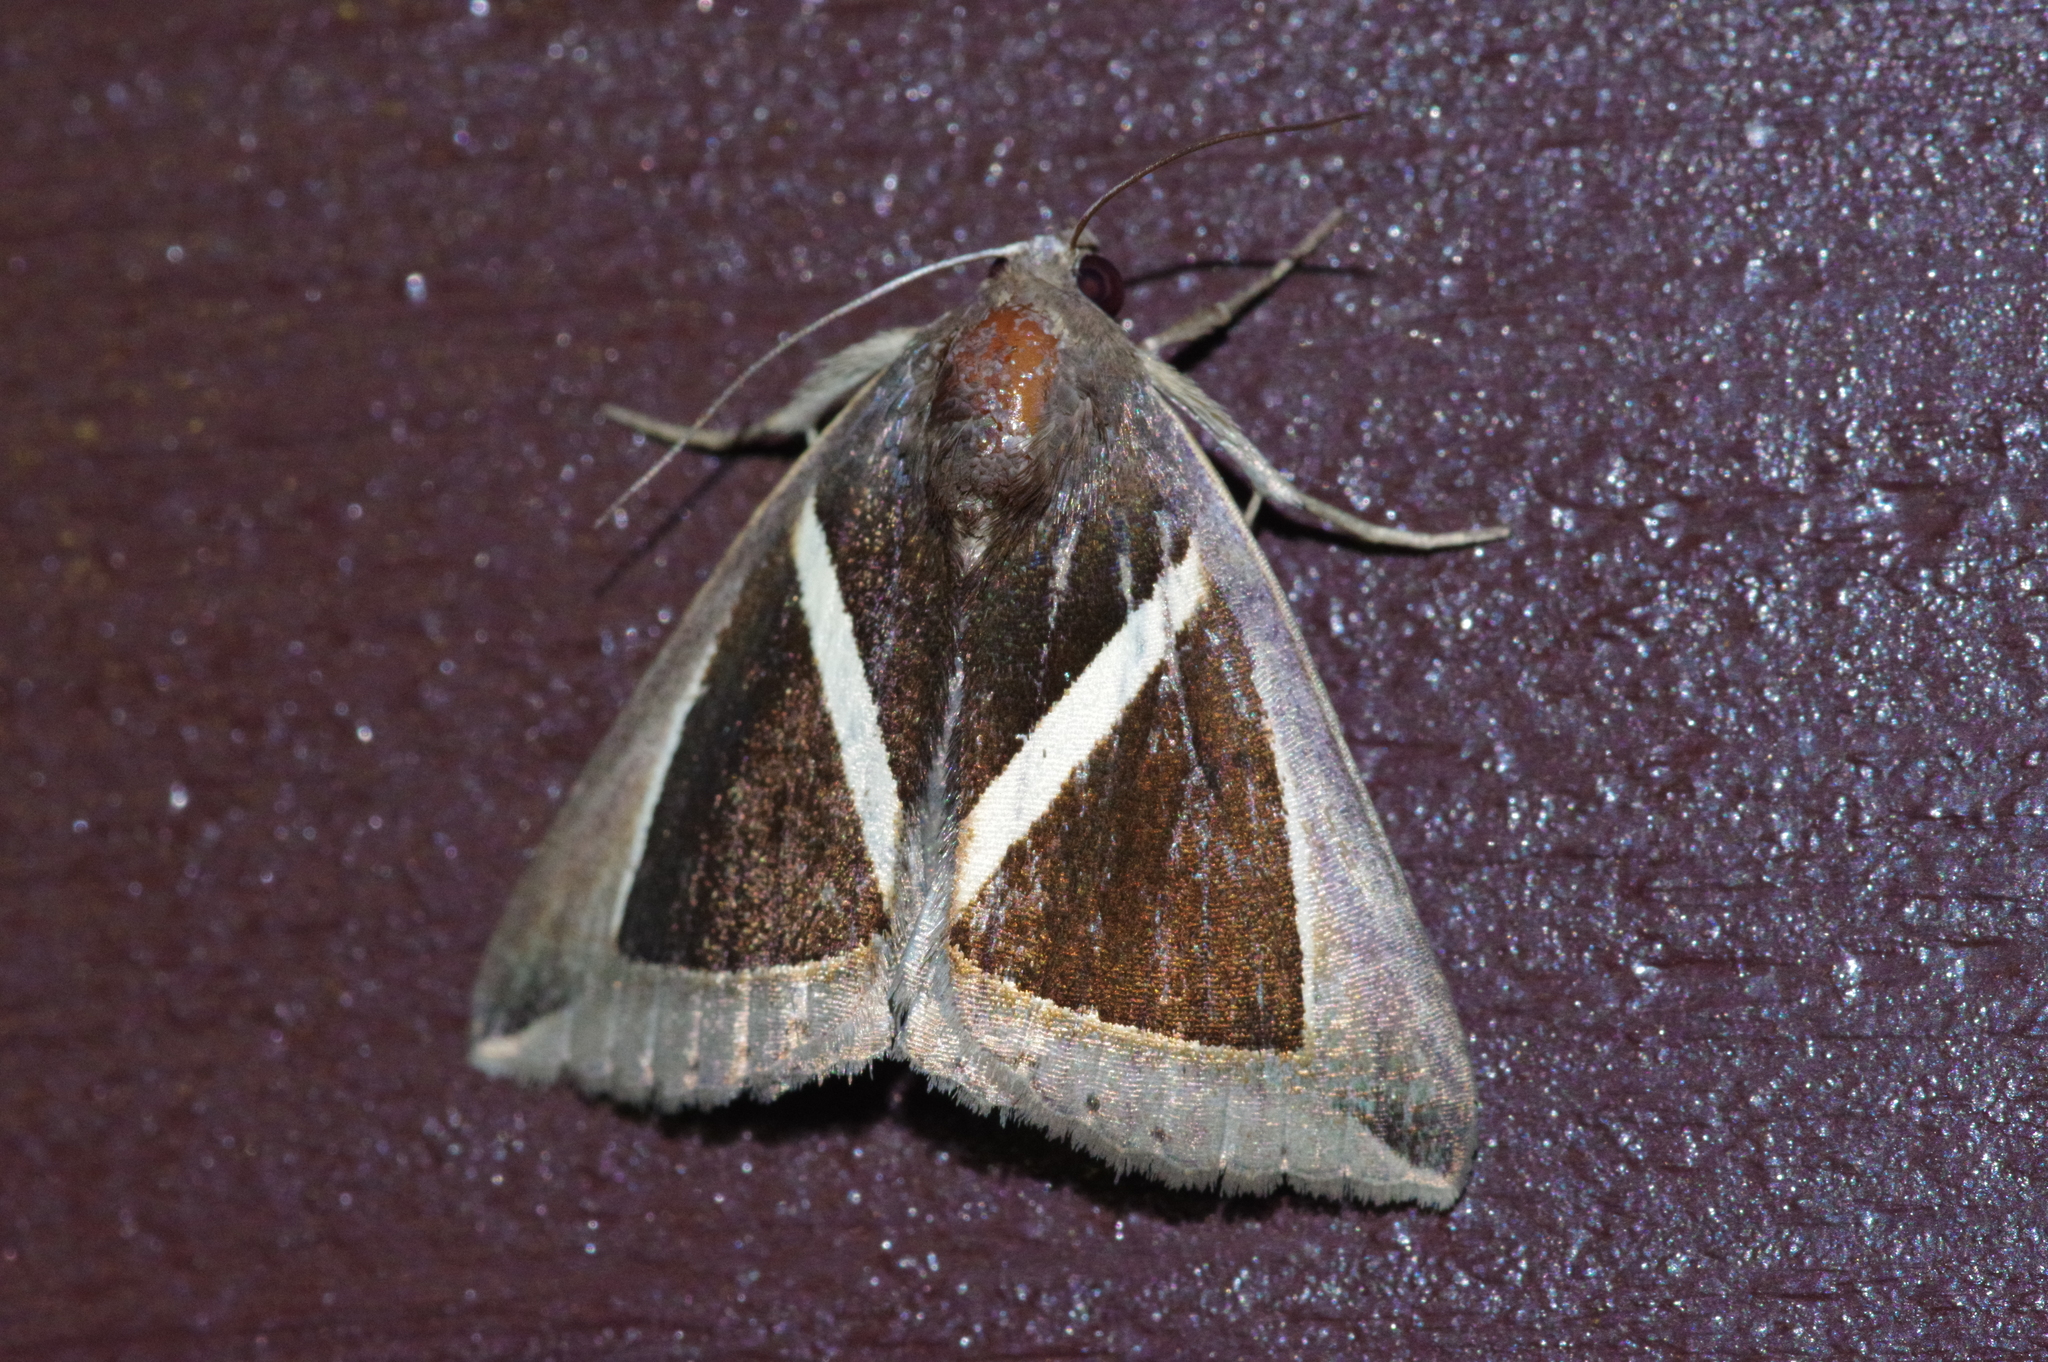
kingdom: Animalia
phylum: Arthropoda
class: Insecta
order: Lepidoptera
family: Erebidae
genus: Chalciope
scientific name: Chalciope mygdon
